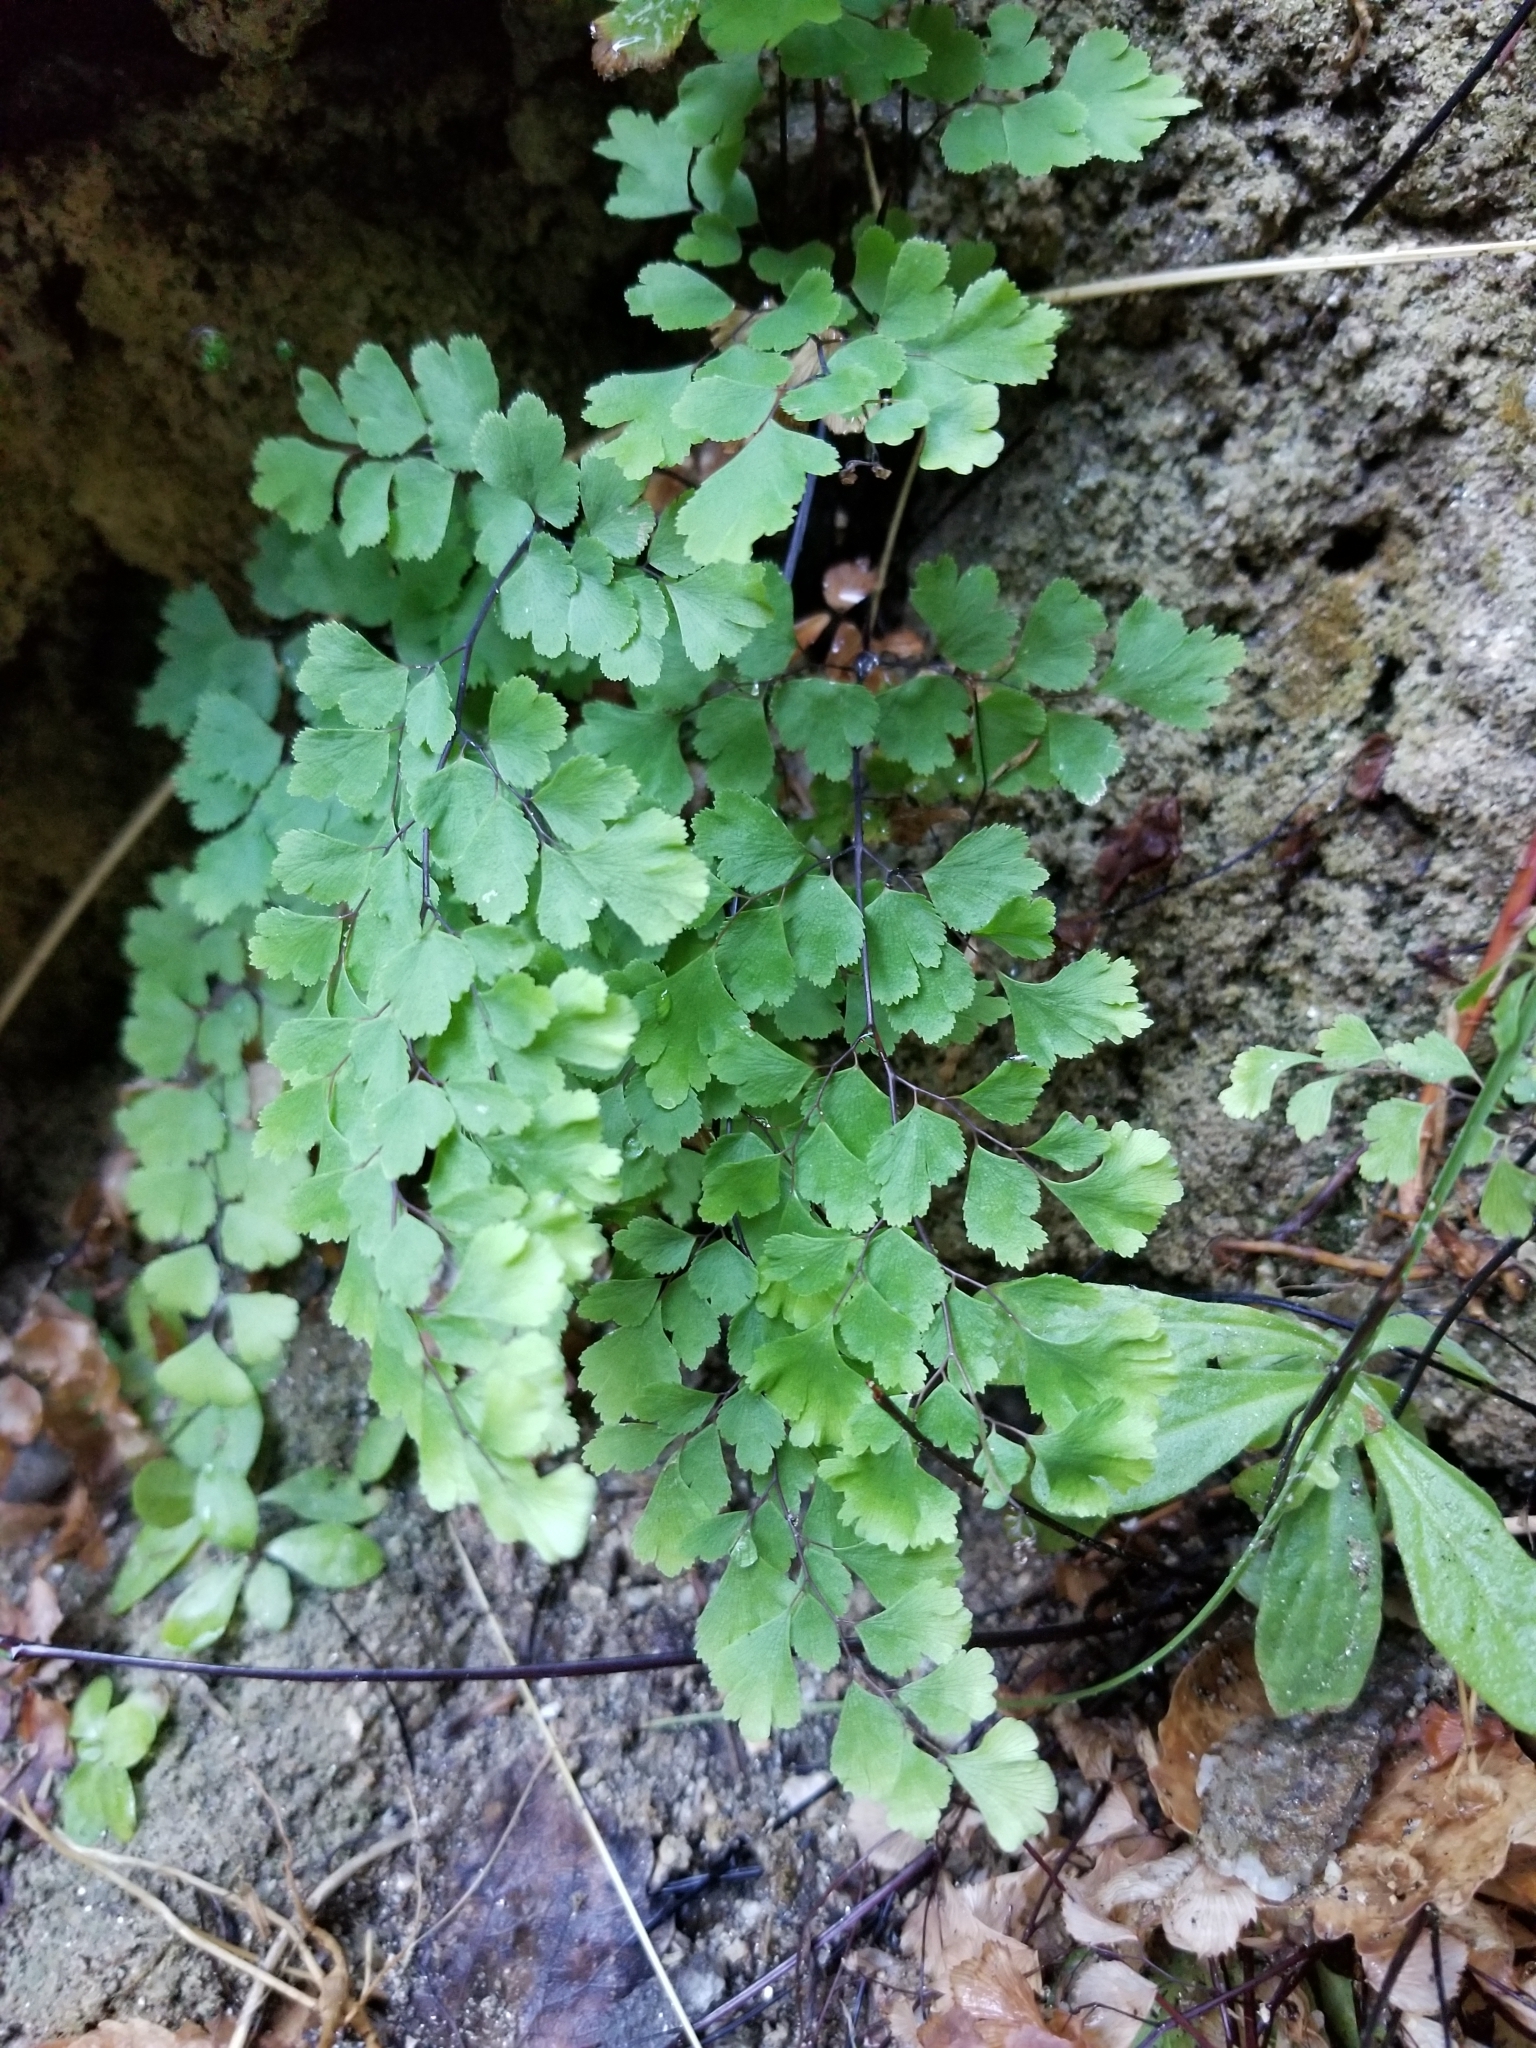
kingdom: Plantae
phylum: Tracheophyta
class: Polypodiopsida
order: Polypodiales
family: Pteridaceae
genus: Adiantum
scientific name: Adiantum capillus-veneris
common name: Maidenhair fern
